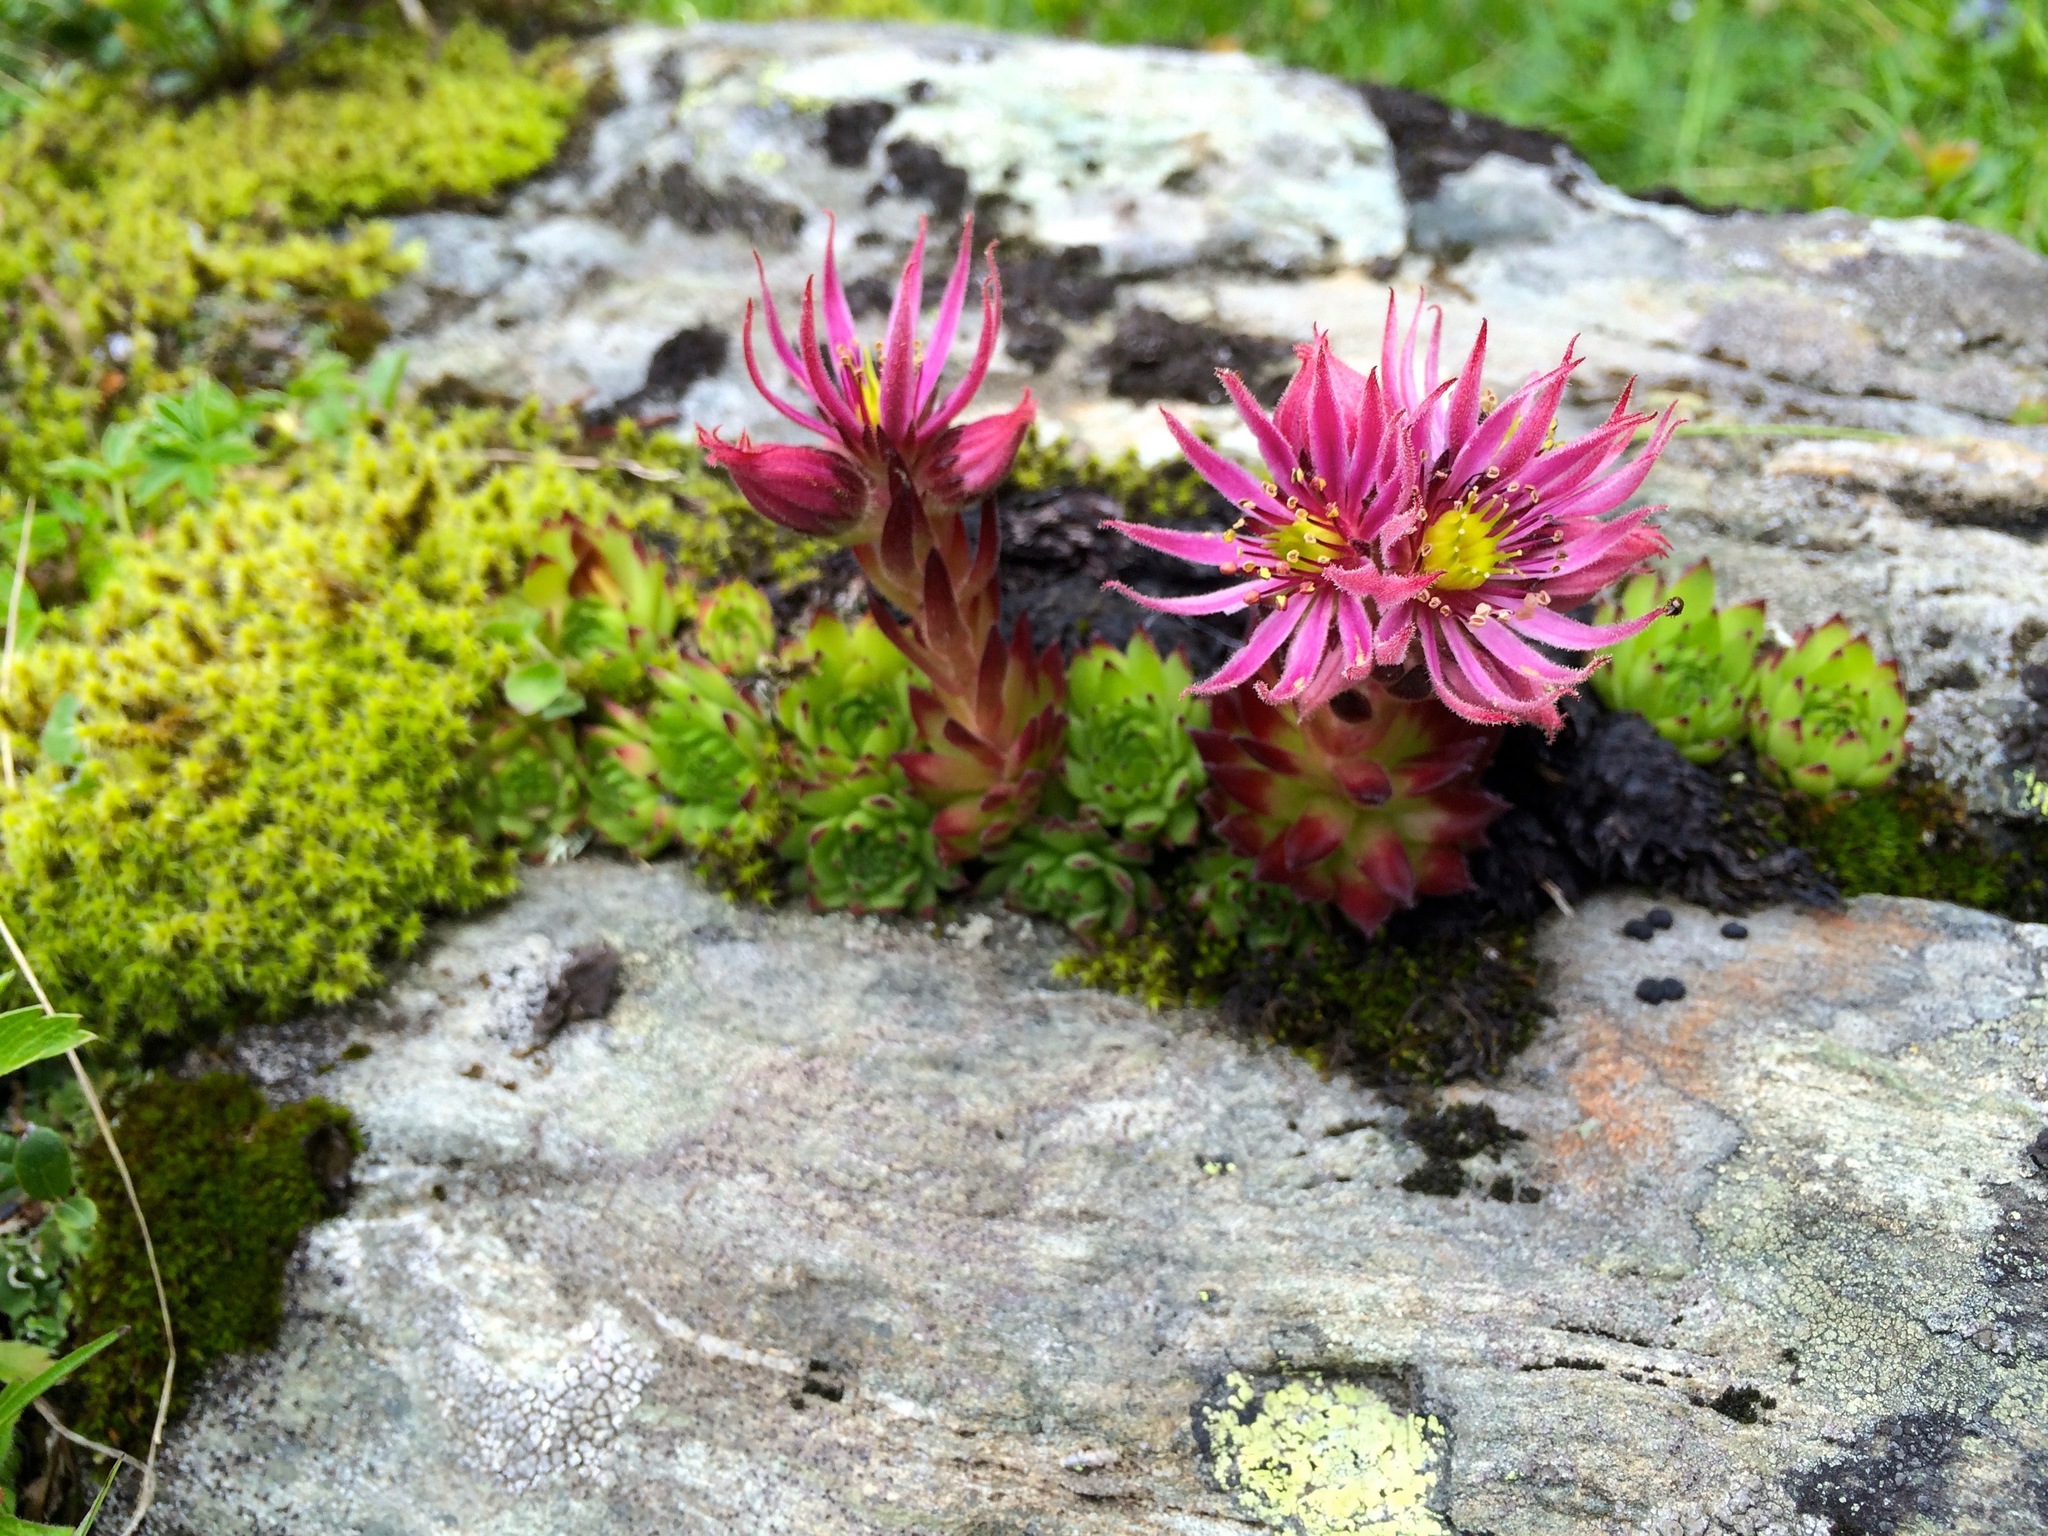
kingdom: Plantae
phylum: Tracheophyta
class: Magnoliopsida
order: Saxifragales
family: Crassulaceae
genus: Sempervivum
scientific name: Sempervivum montanum
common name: Mountain house-leek
